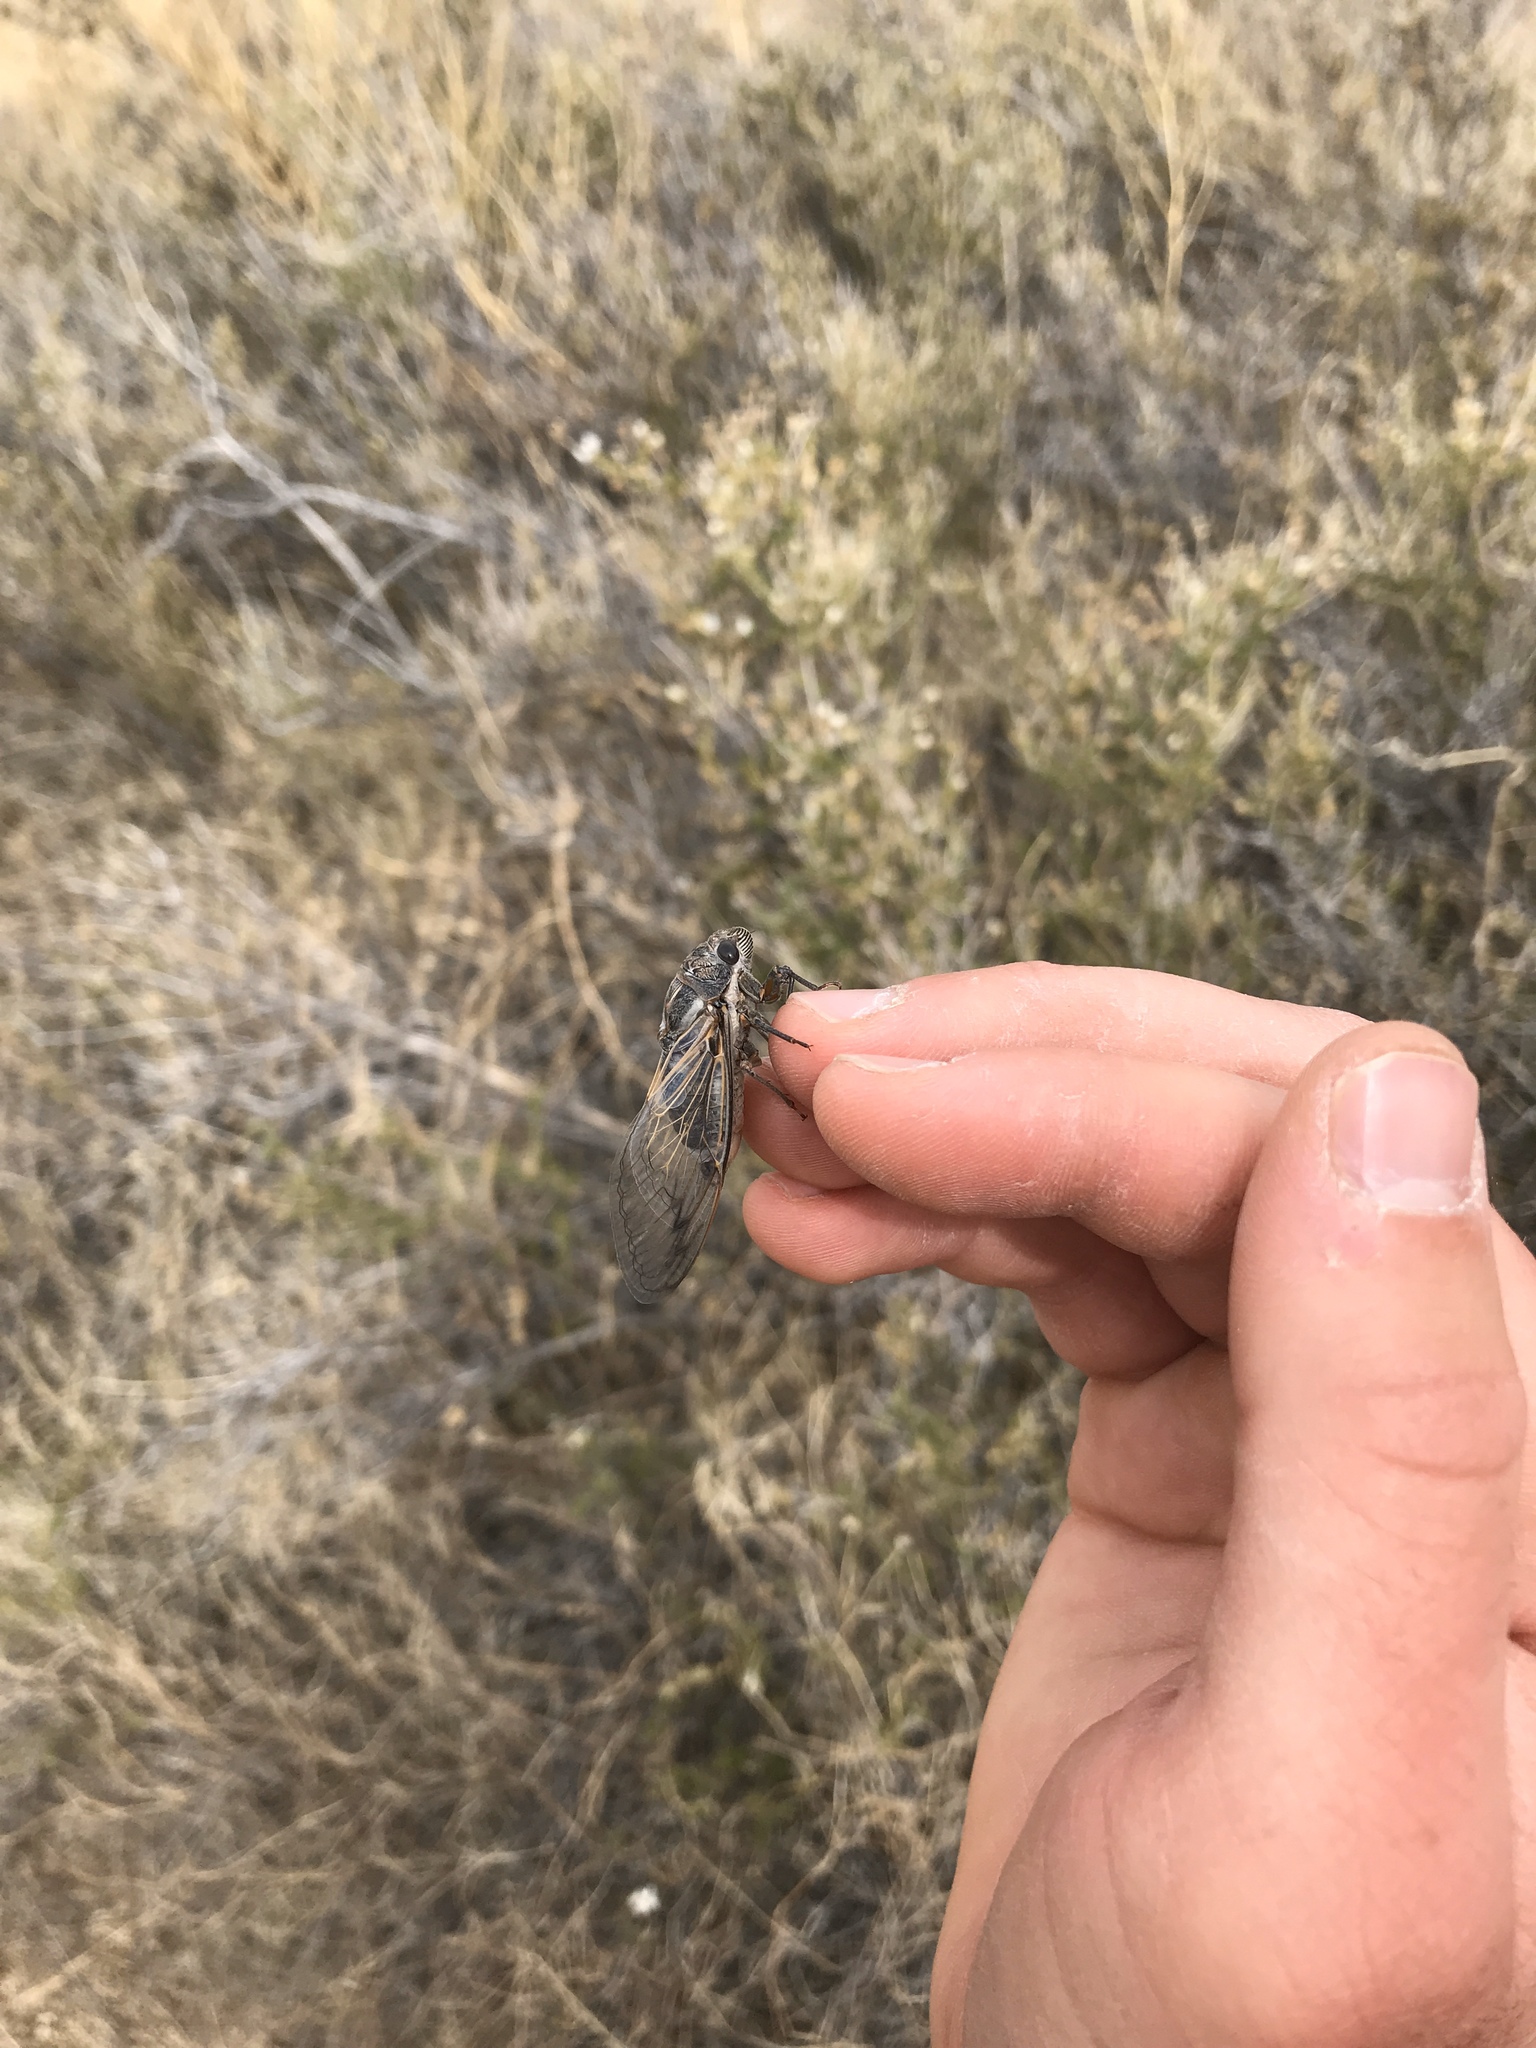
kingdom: Animalia
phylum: Arthropoda
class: Insecta
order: Hemiptera
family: Cicadidae
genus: Hadoa
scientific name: Hadoa townsendii
